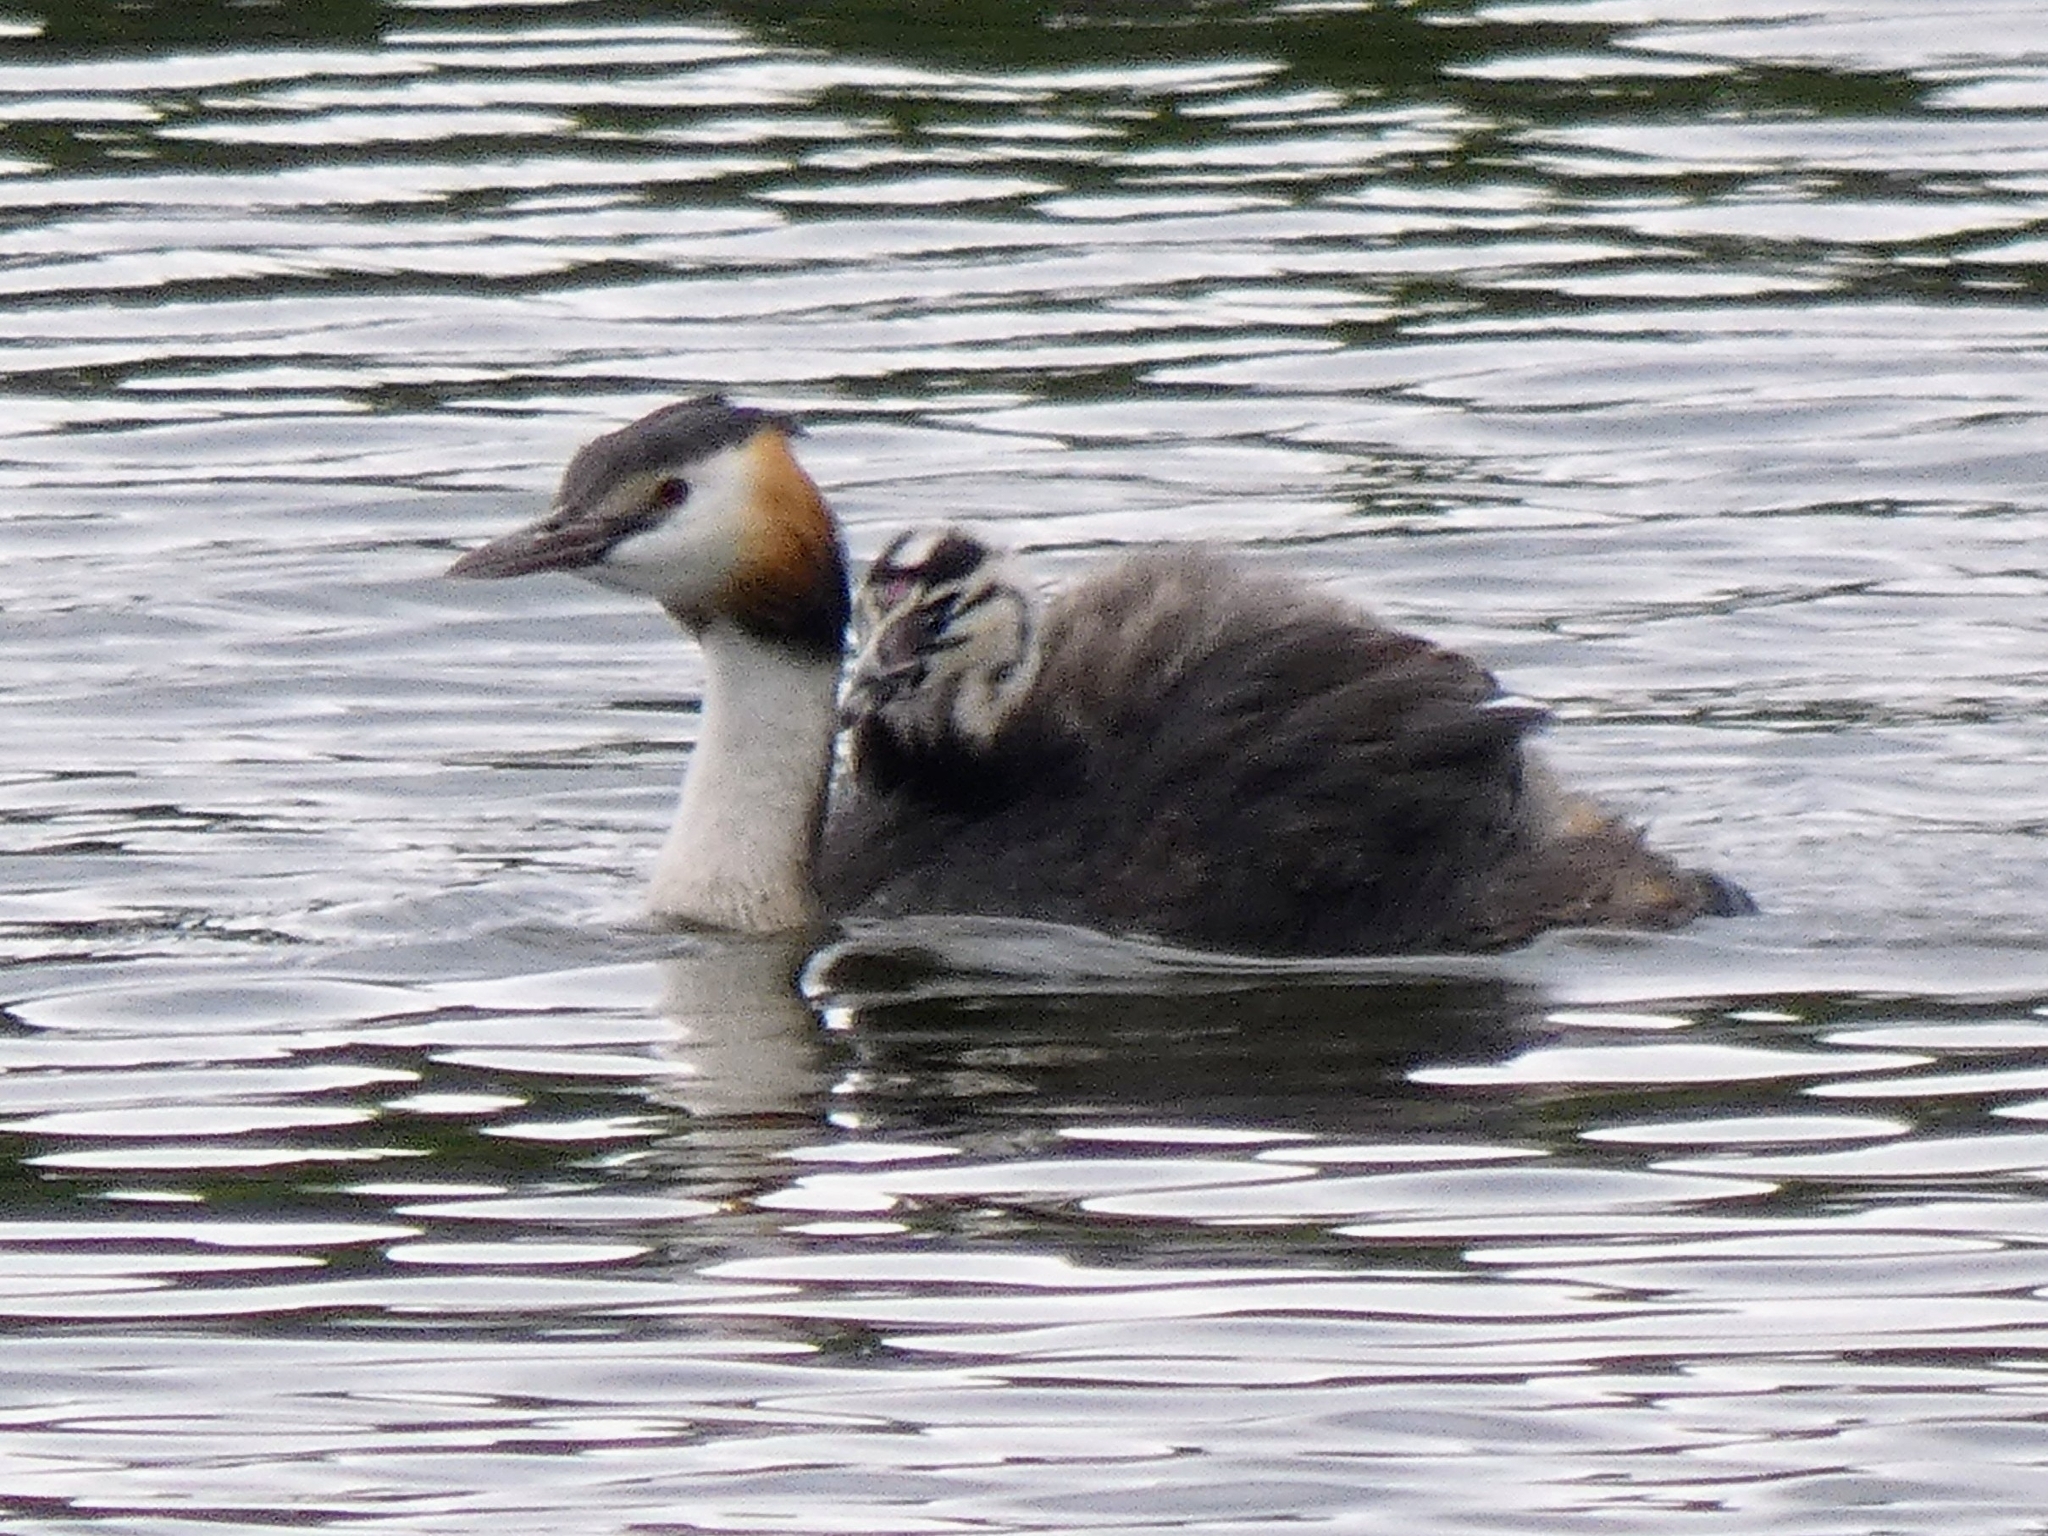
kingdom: Animalia
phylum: Chordata
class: Aves
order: Podicipediformes
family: Podicipedidae
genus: Podiceps
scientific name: Podiceps cristatus
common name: Great crested grebe
